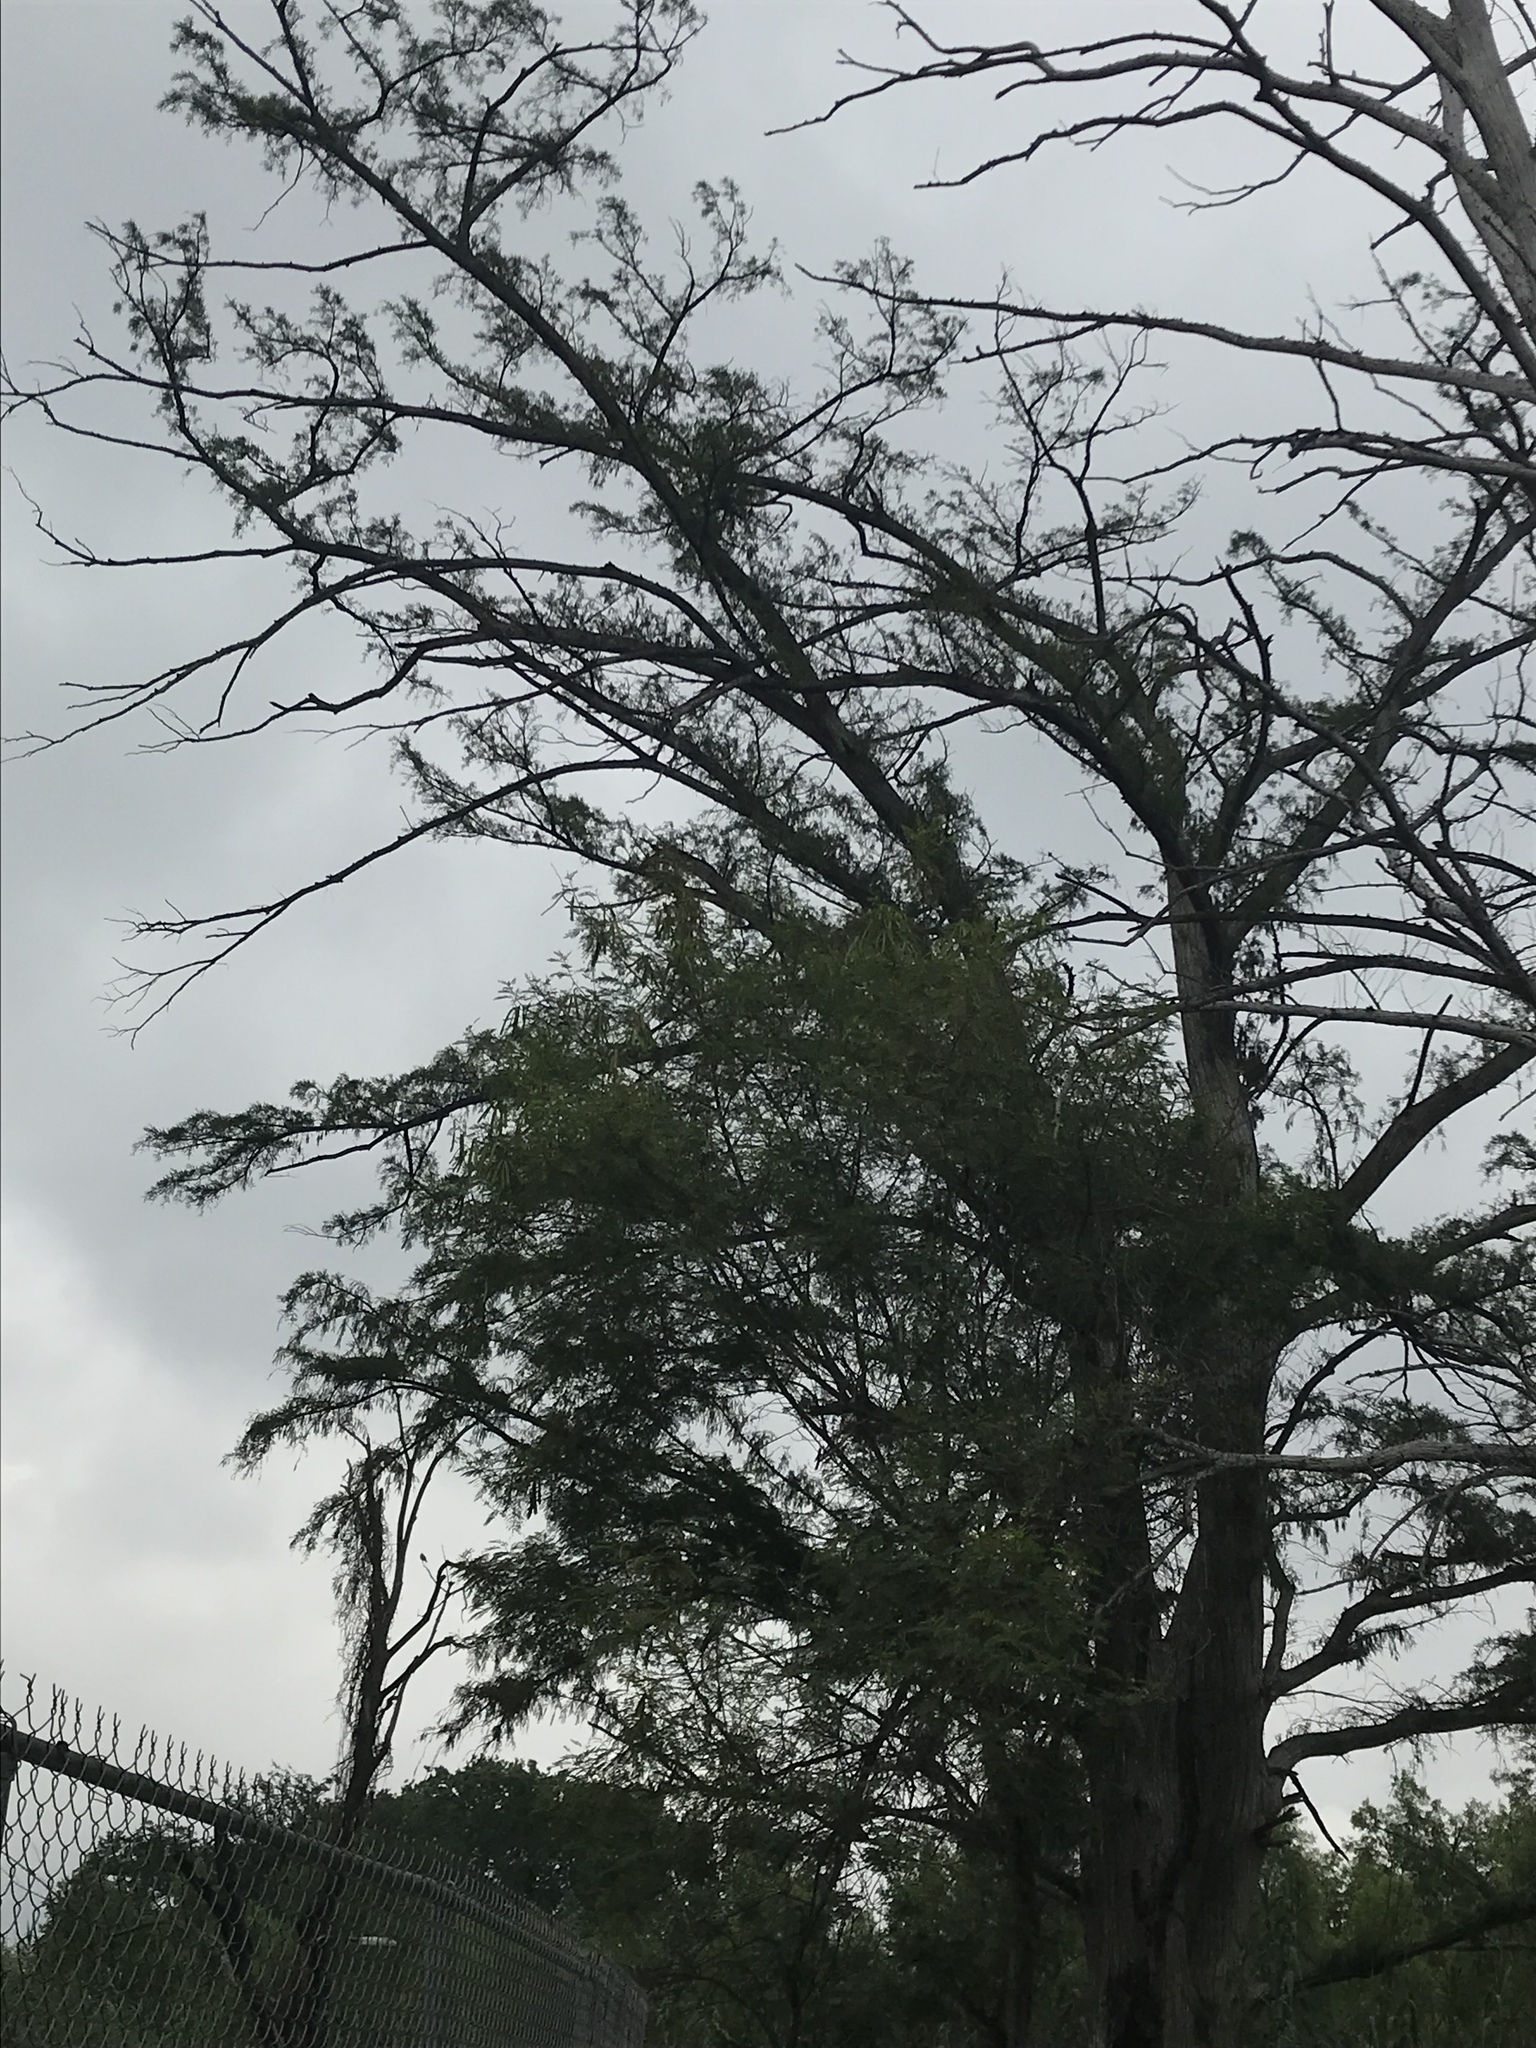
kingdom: Plantae
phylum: Tracheophyta
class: Pinopsida
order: Pinales
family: Cupressaceae
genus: Taxodium
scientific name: Taxodium mucronatum
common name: Montezume bald cypress
